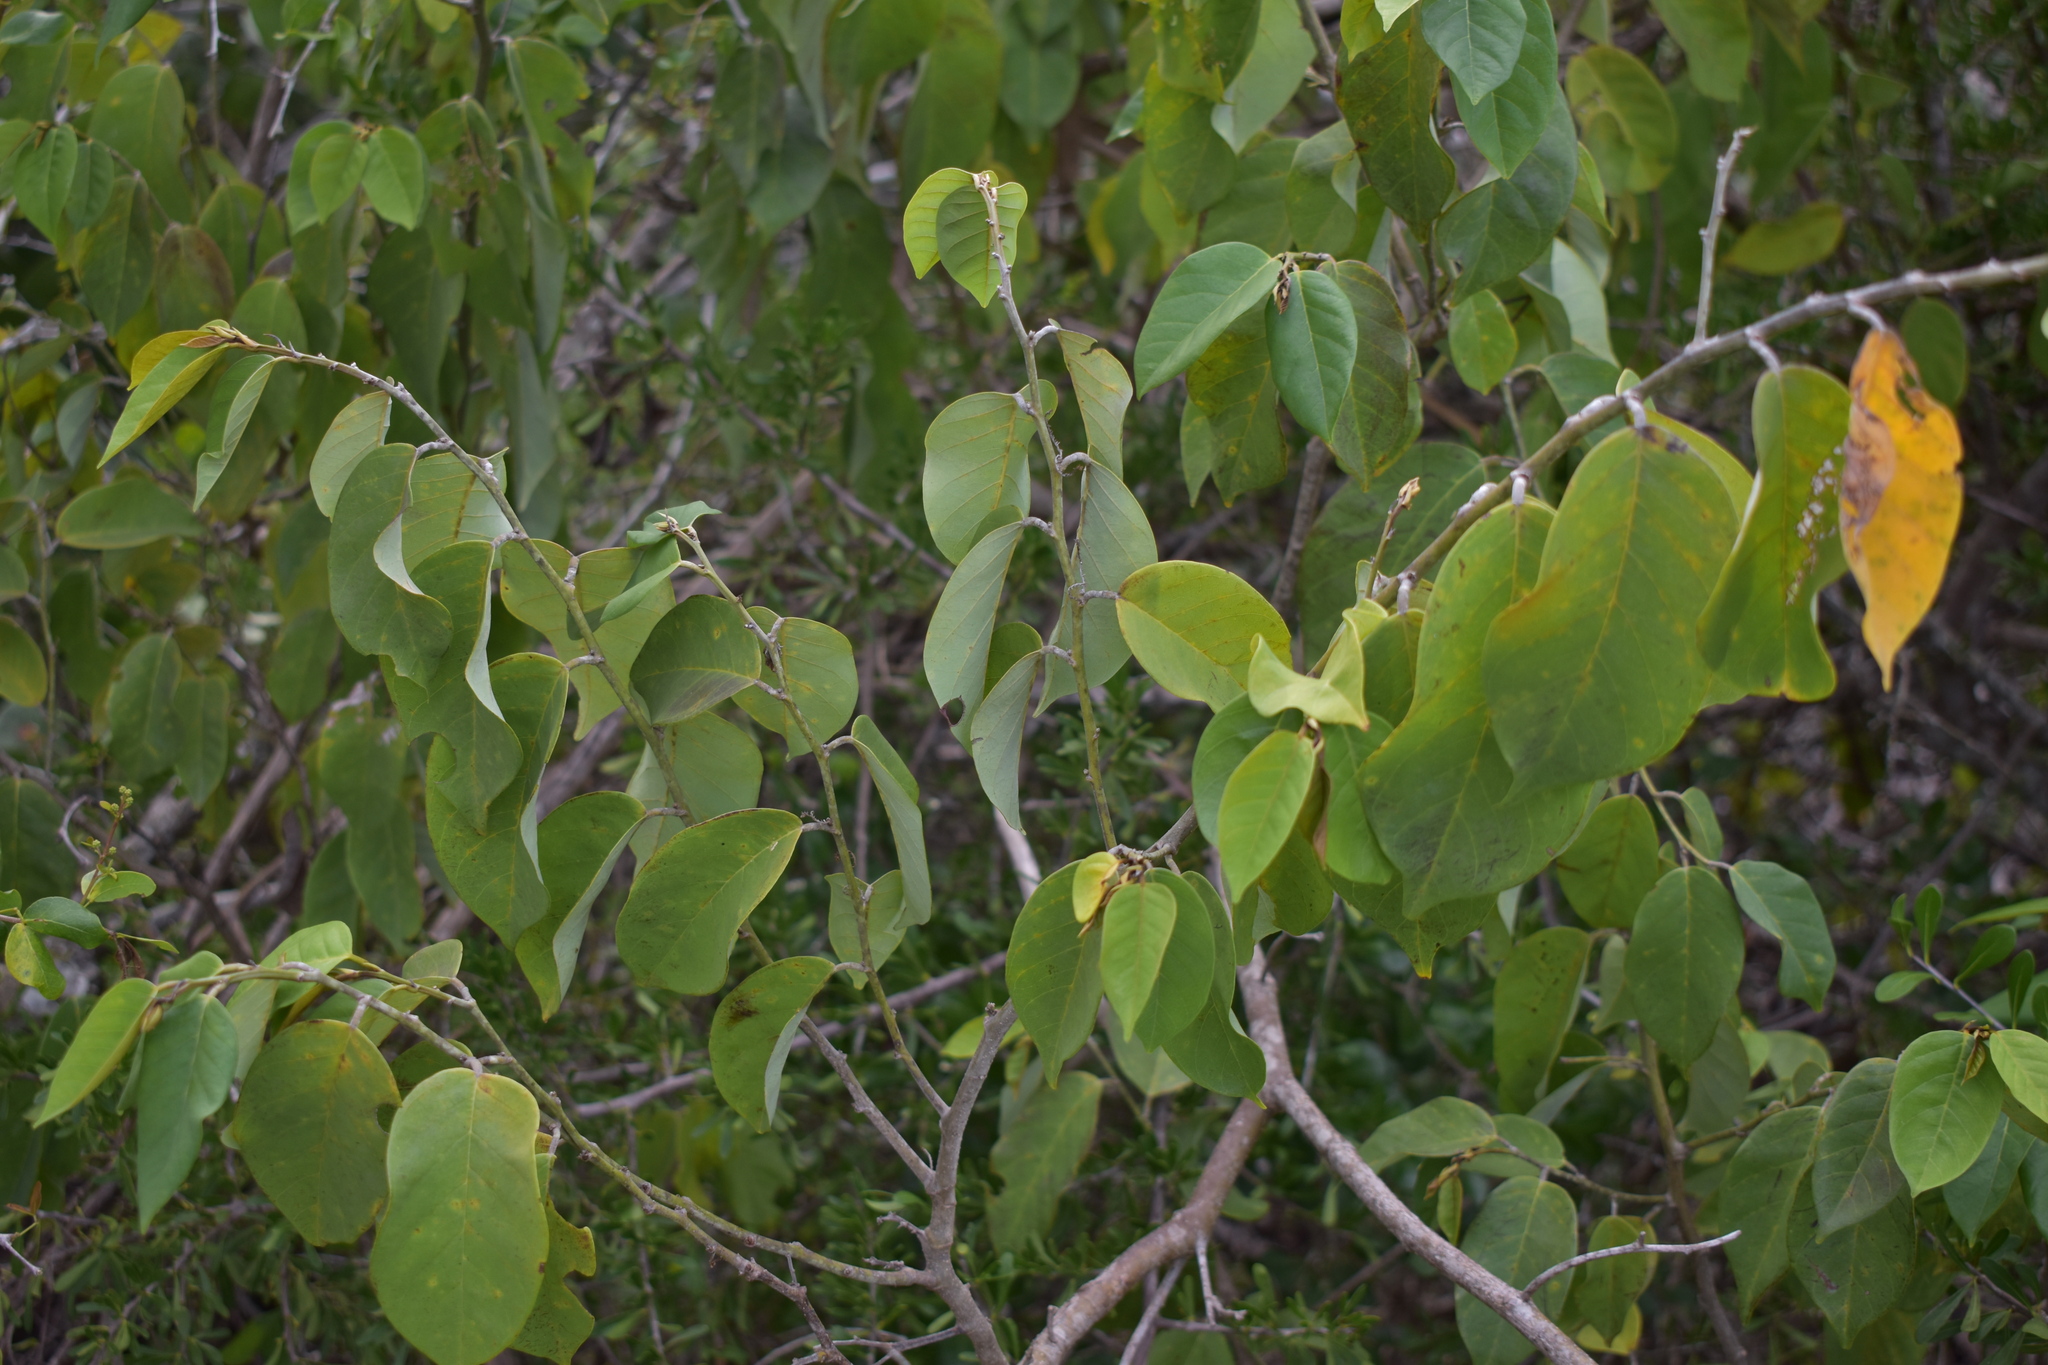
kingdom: Plantae
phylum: Tracheophyta
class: Magnoliopsida
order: Fabales
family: Fabaceae
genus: Dalbergia
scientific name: Dalbergia ecastaphyllum
